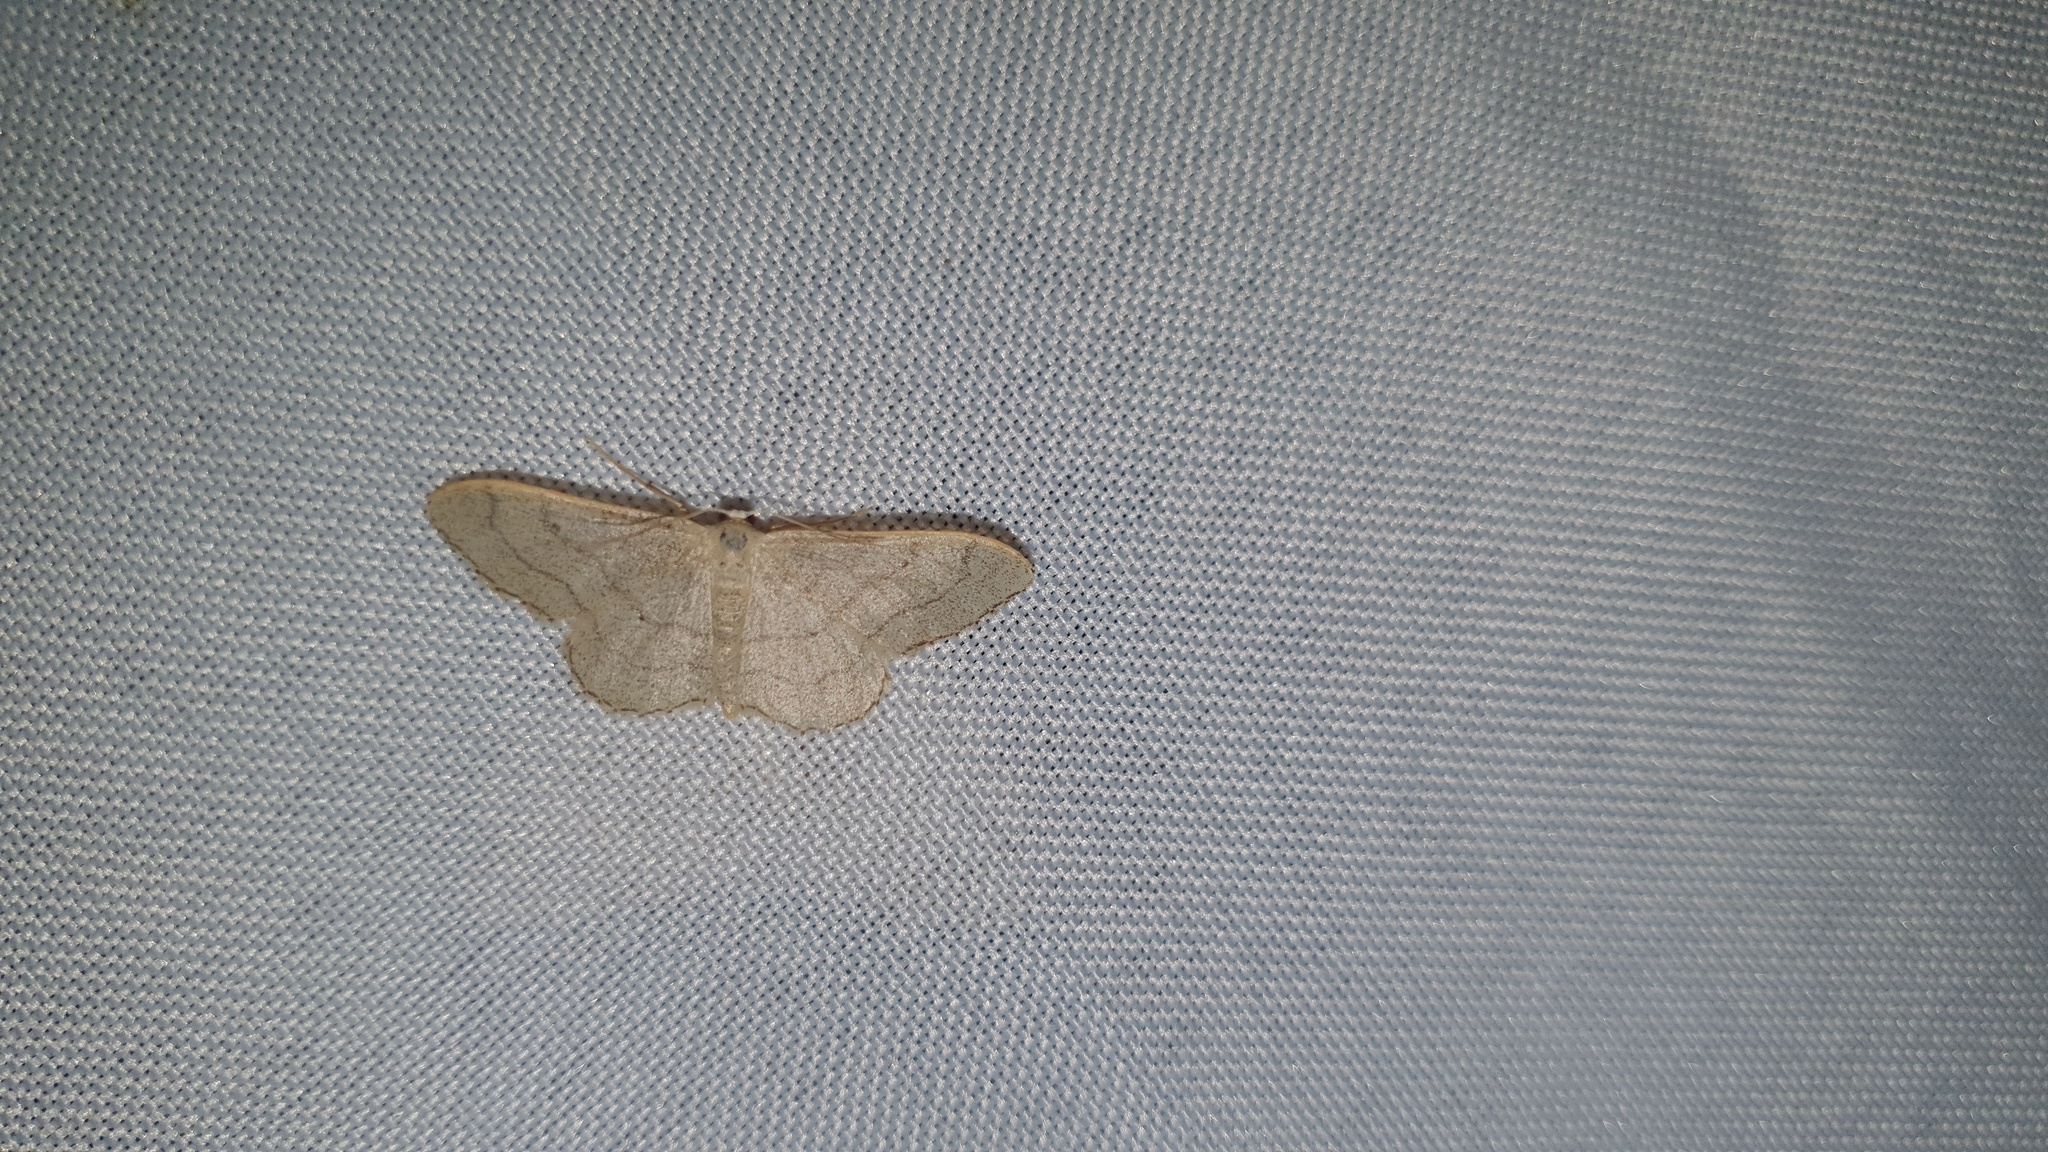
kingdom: Animalia
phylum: Arthropoda
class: Insecta
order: Lepidoptera
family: Geometridae
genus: Idaea
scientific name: Idaea aversata
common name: Riband wave
